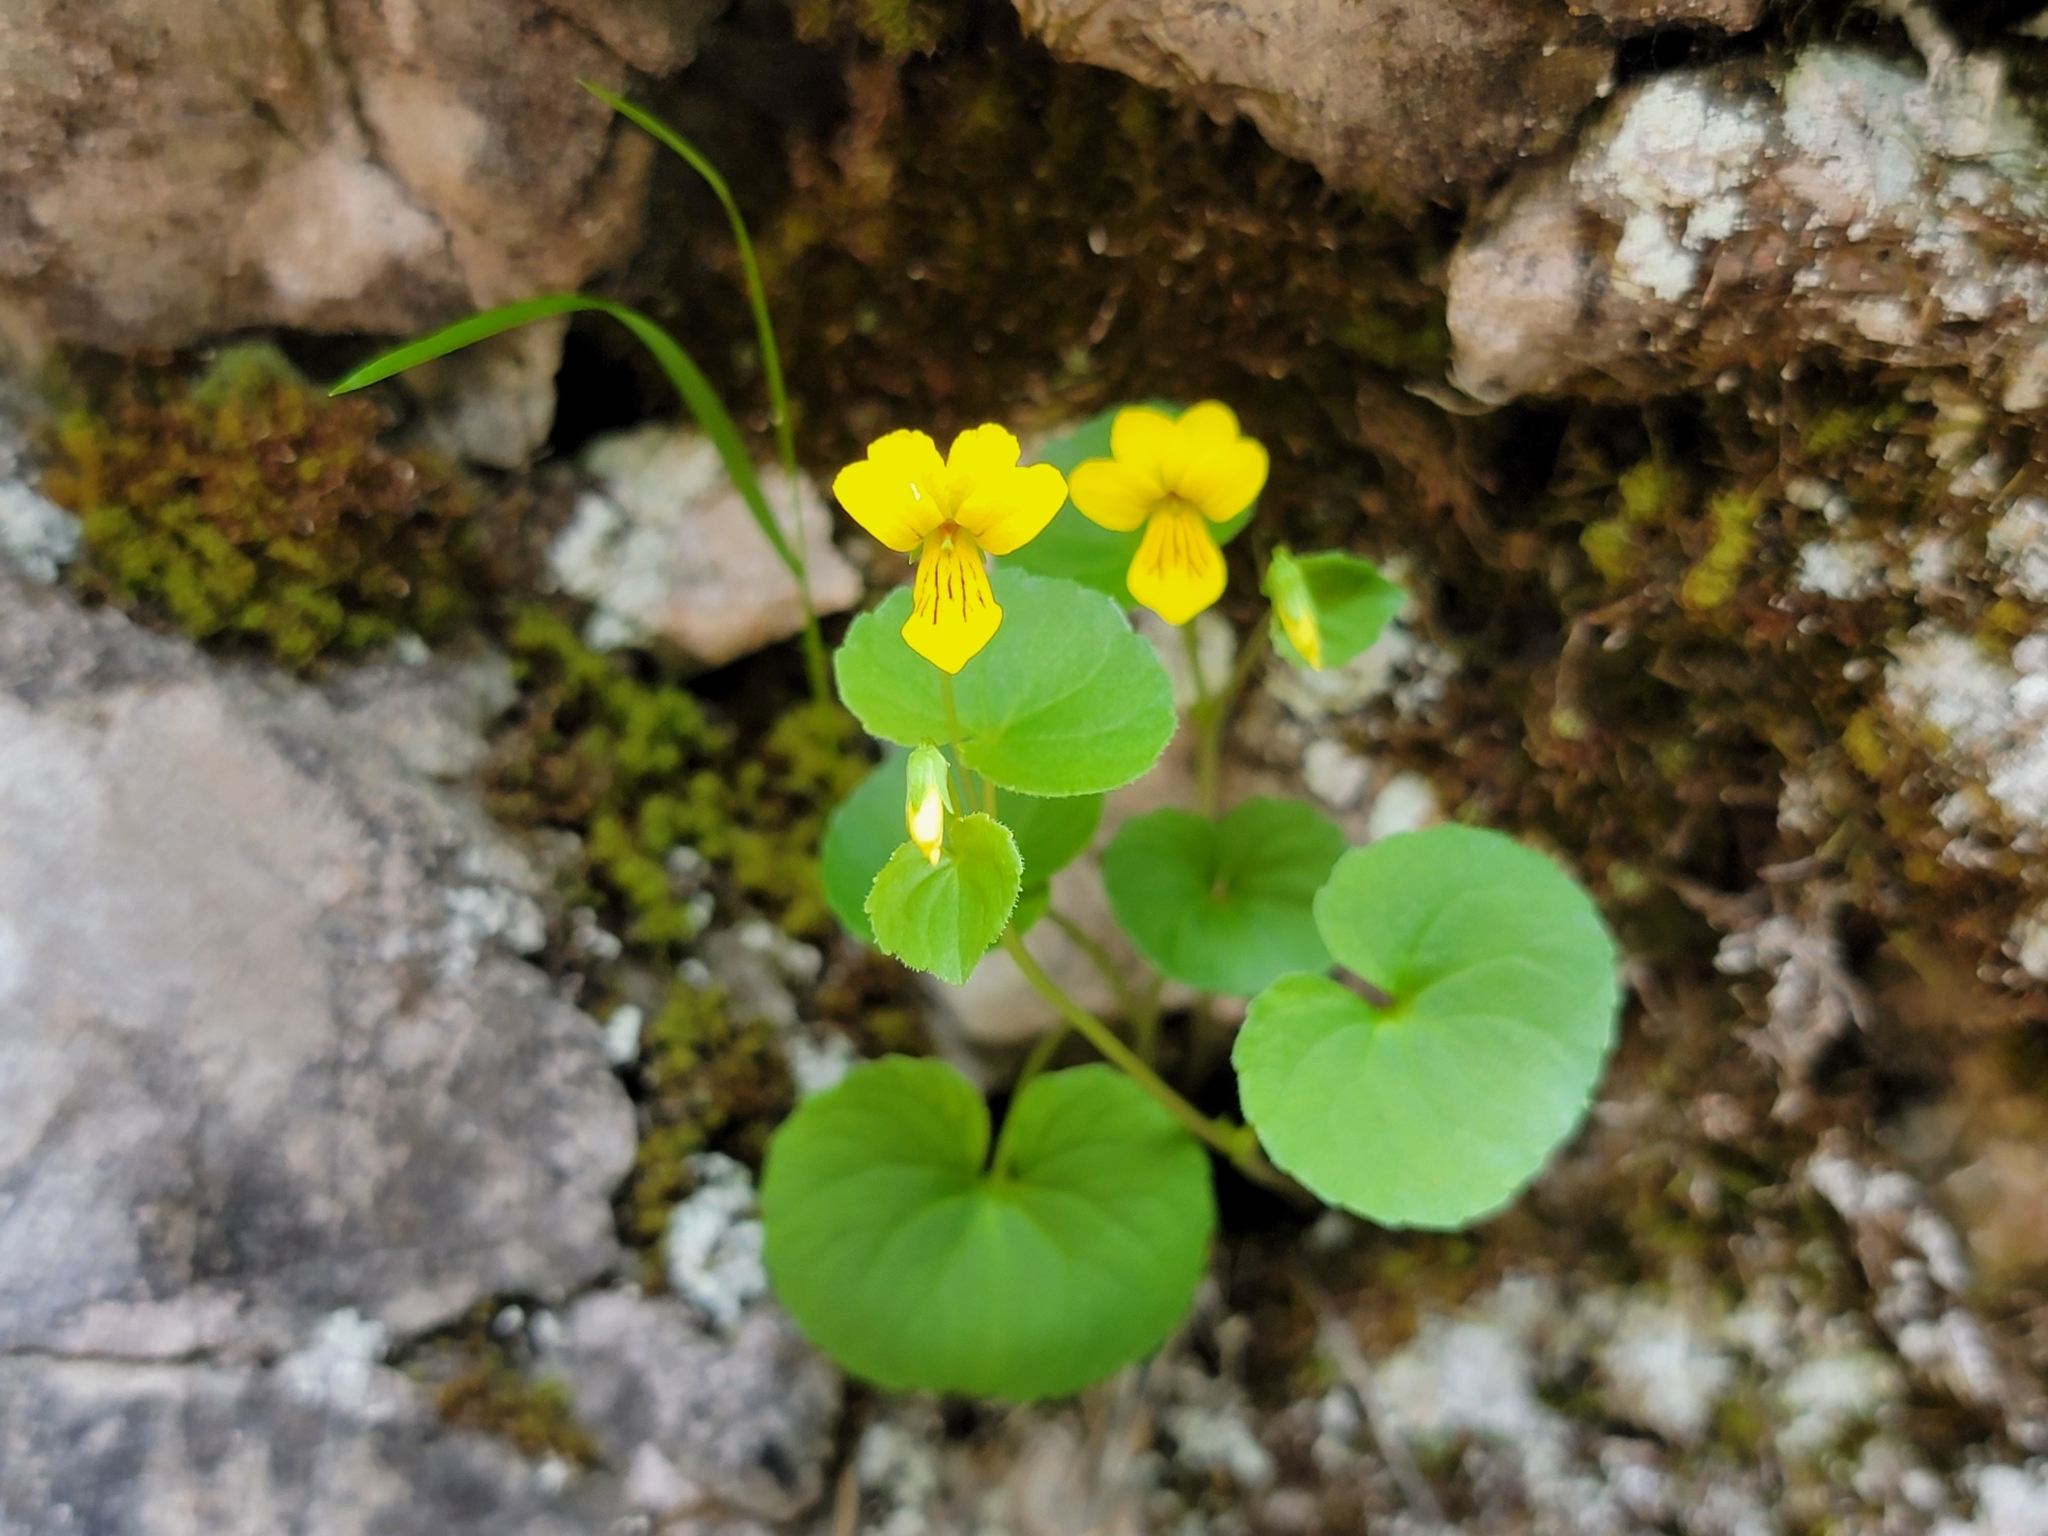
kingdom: Plantae
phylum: Tracheophyta
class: Magnoliopsida
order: Malpighiales
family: Violaceae
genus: Viola
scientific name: Viola biflora
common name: Alpine yellow violet
